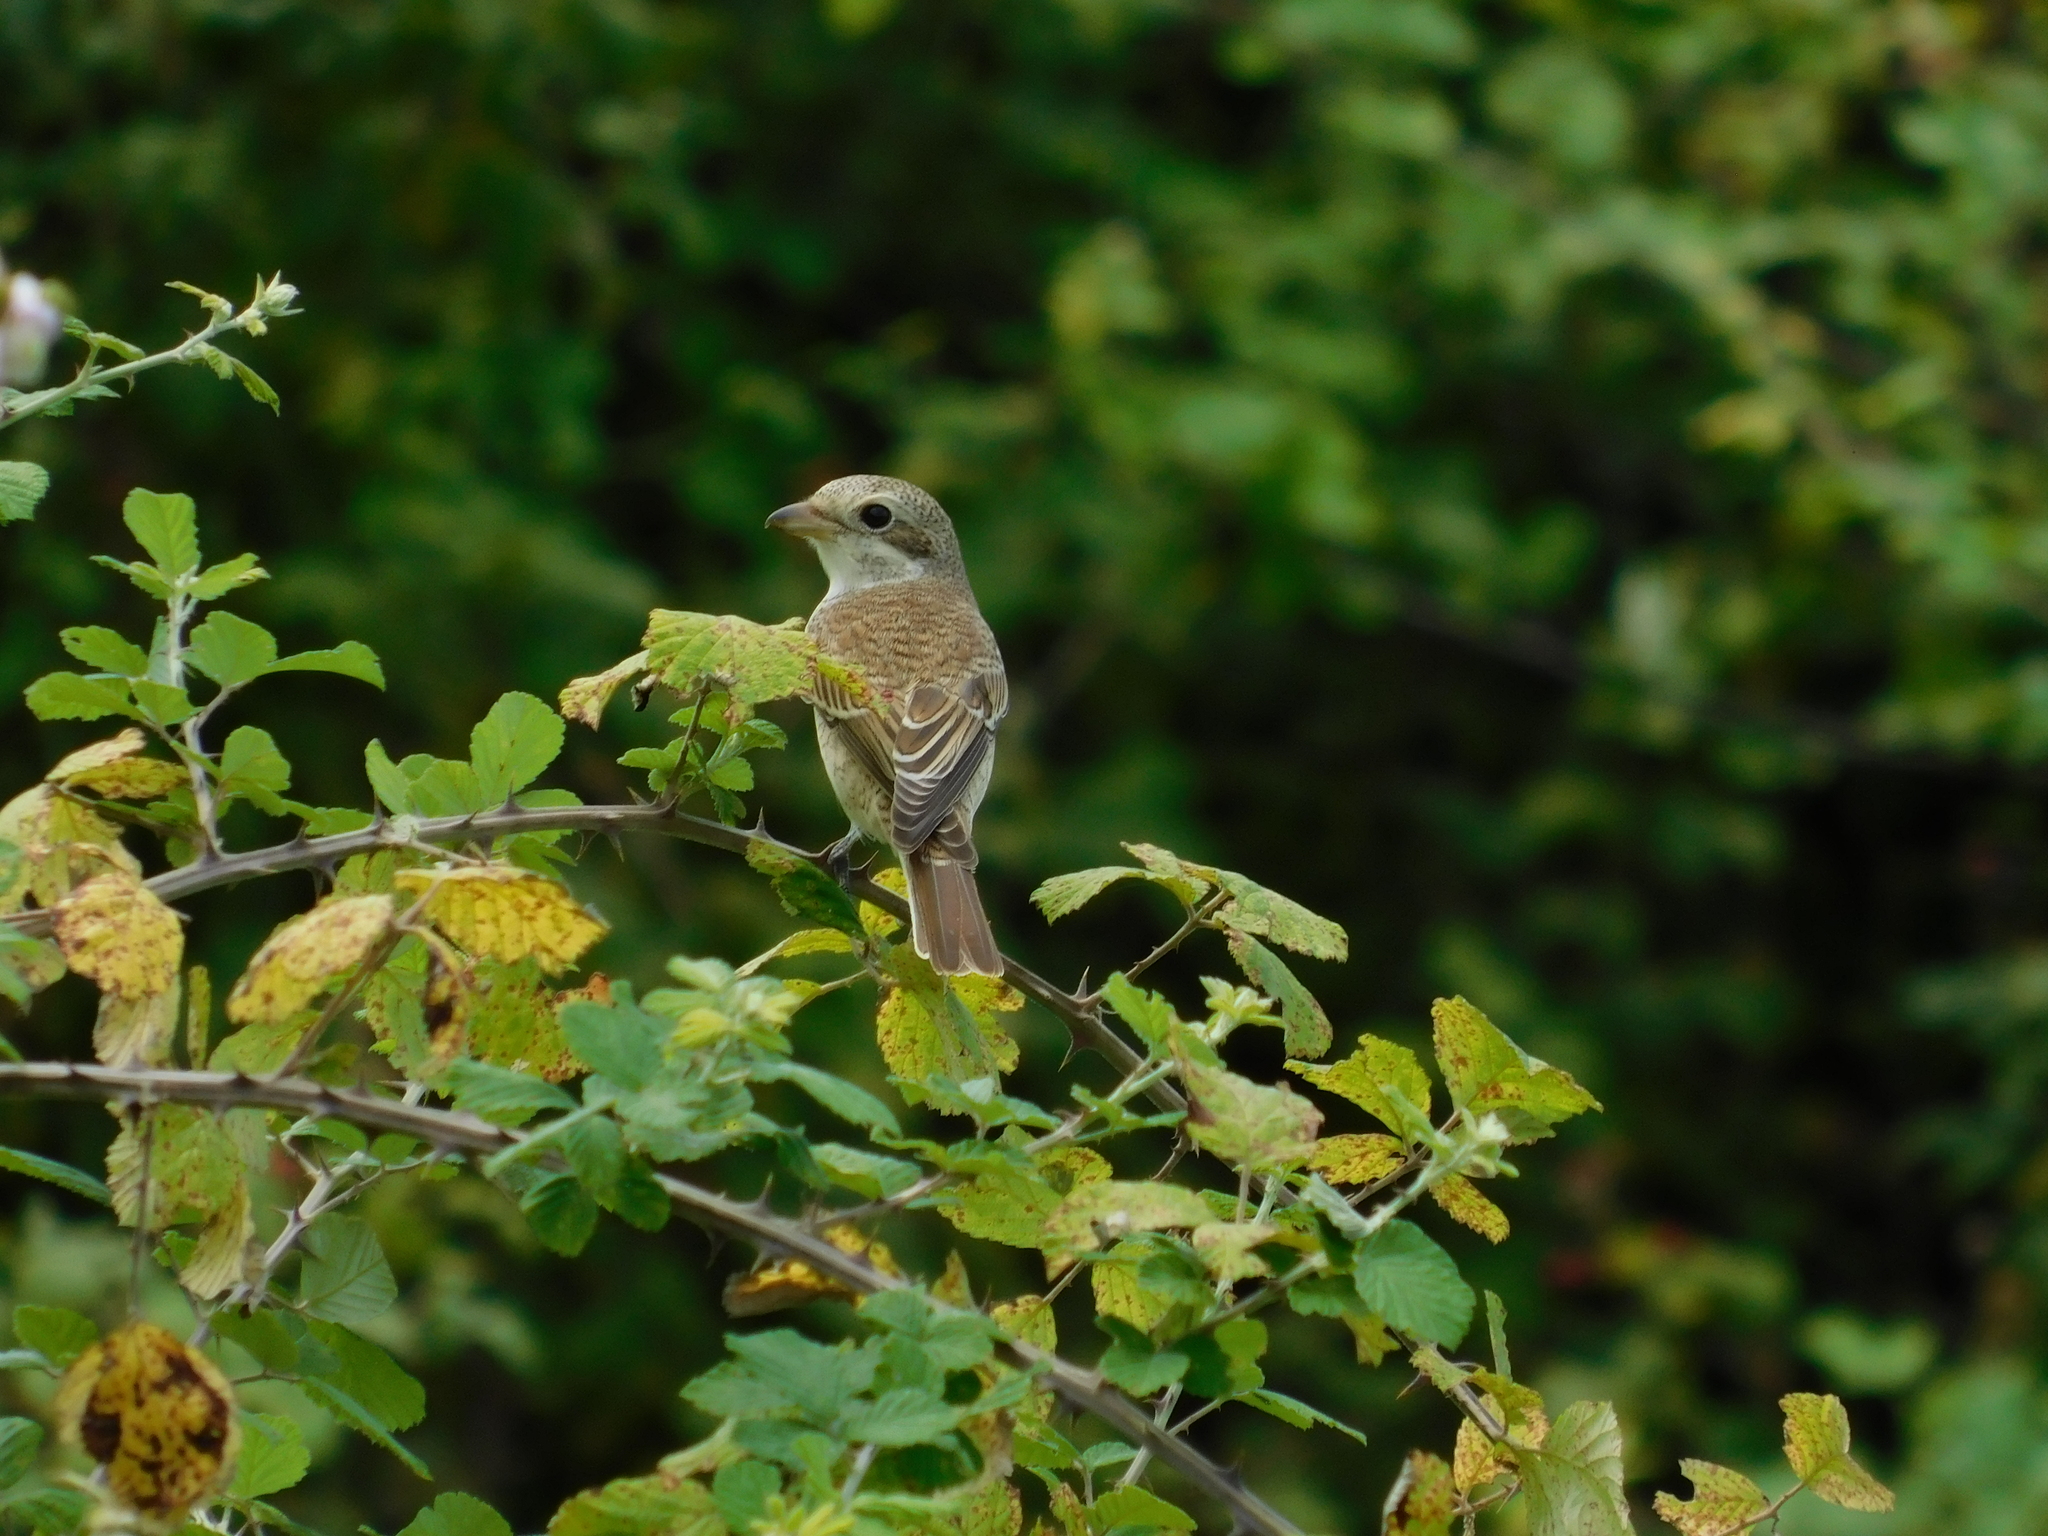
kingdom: Animalia
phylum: Chordata
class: Aves
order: Passeriformes
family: Laniidae
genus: Lanius
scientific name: Lanius collurio
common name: Red-backed shrike
